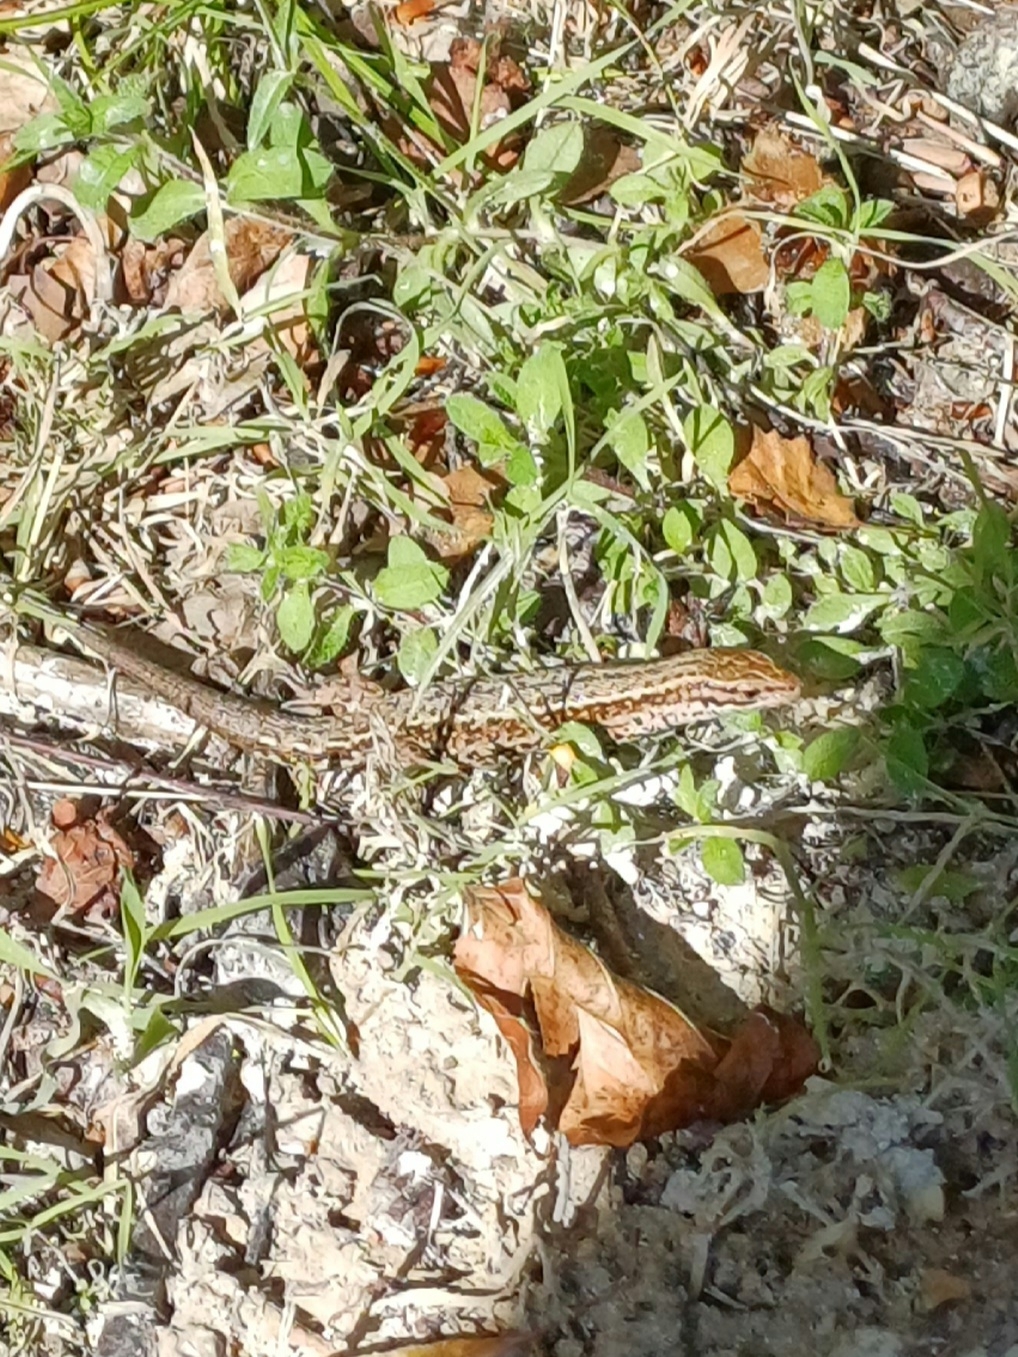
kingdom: Animalia
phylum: Chordata
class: Squamata
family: Lacertidae
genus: Zootoca
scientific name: Zootoca vivipara
